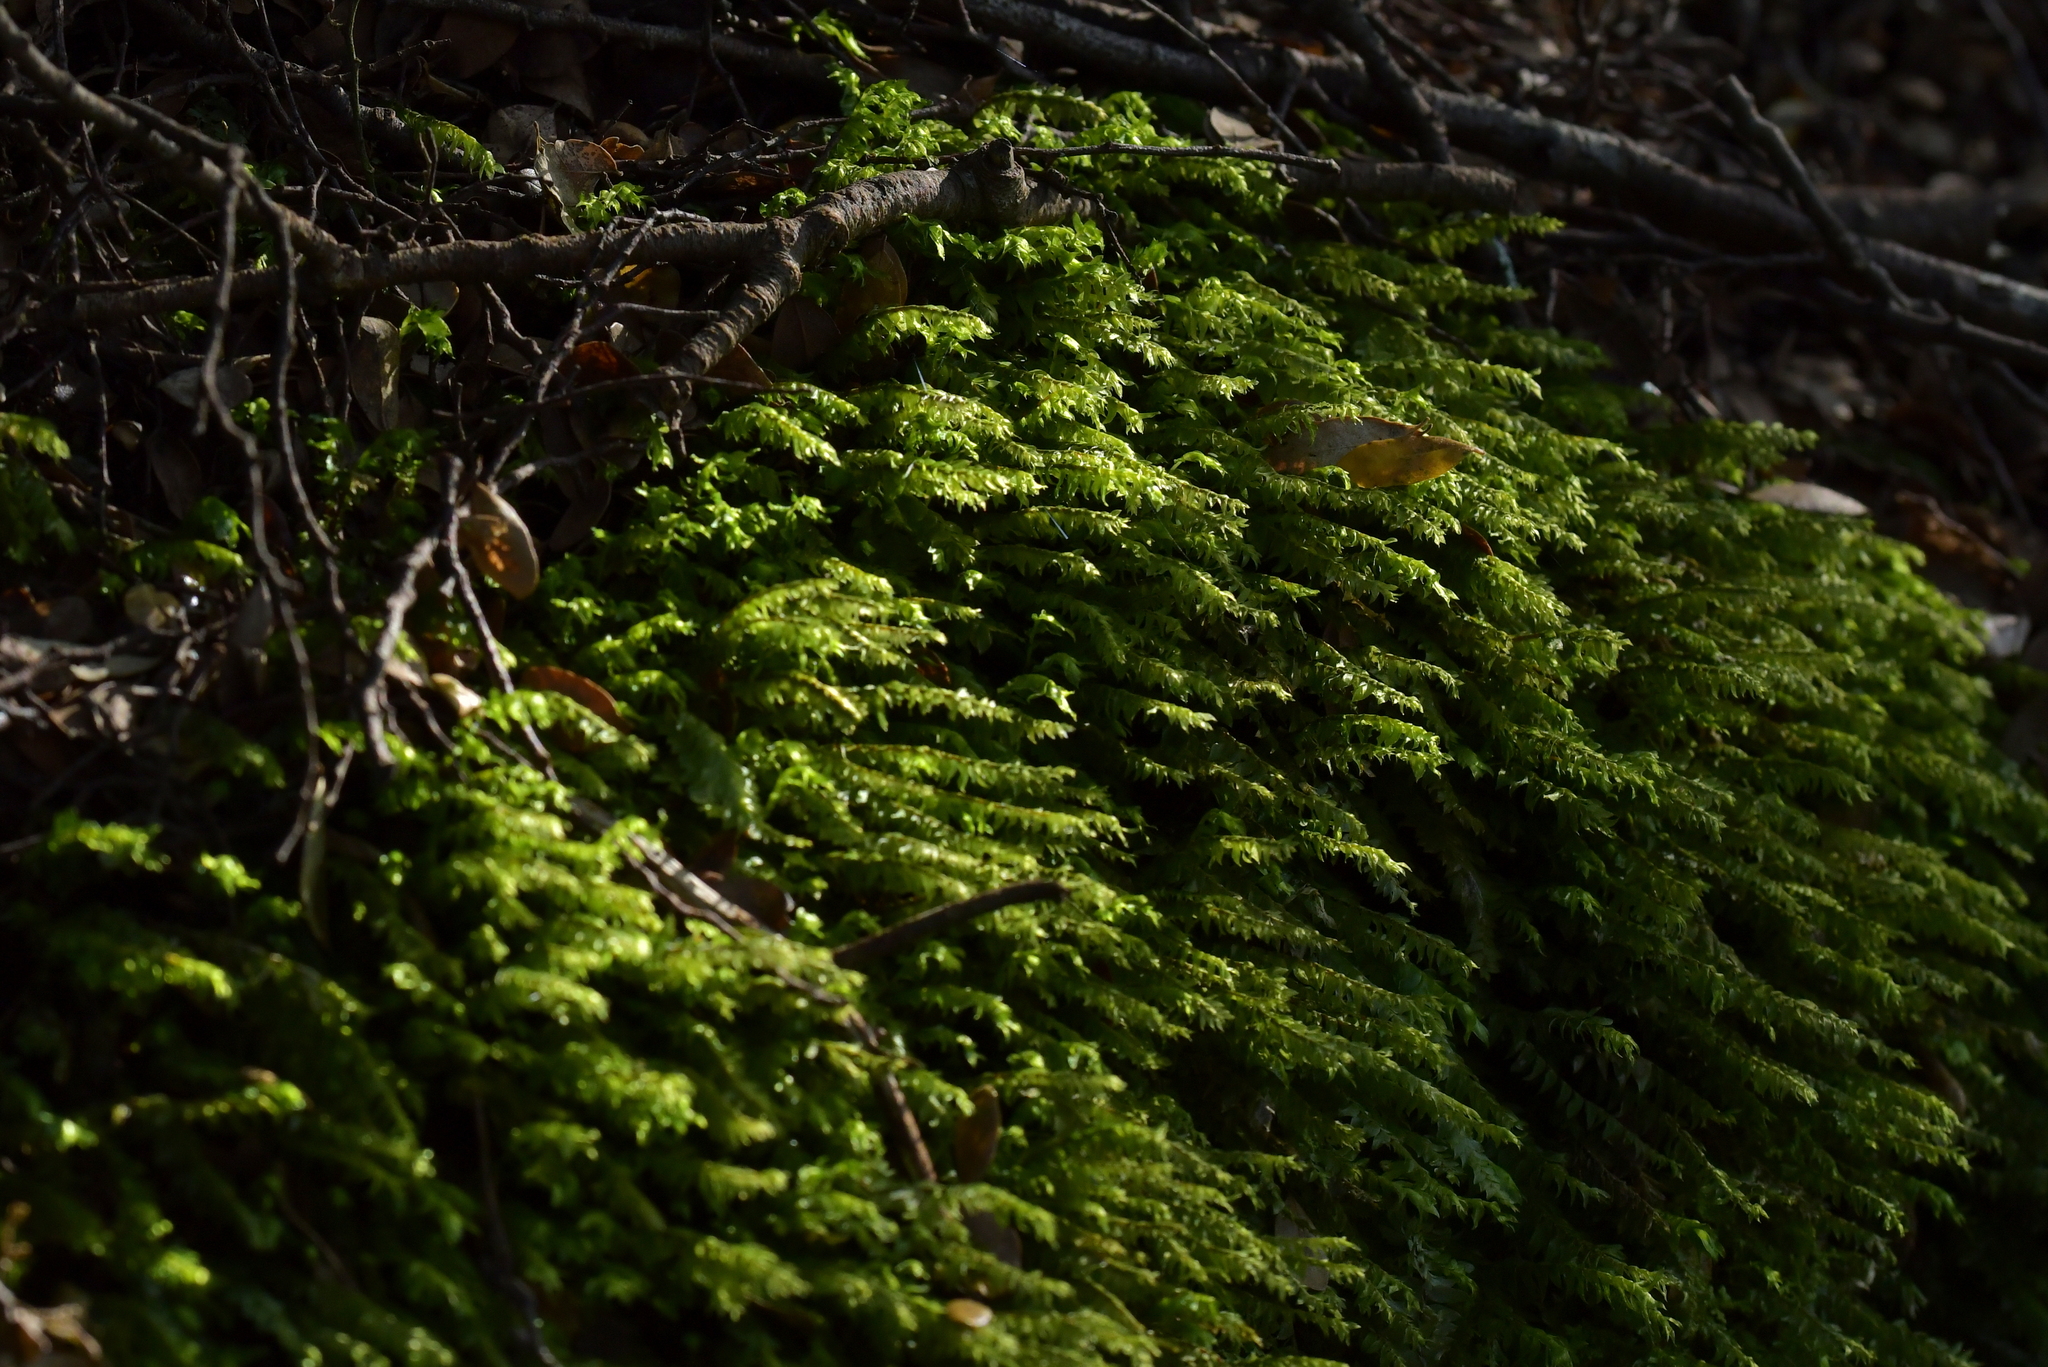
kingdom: Plantae
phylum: Bryophyta
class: Bryopsida
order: Hypopterygiales
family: Hypopterygiaceae
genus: Cyathophorum
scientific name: Cyathophorum bulbosum
